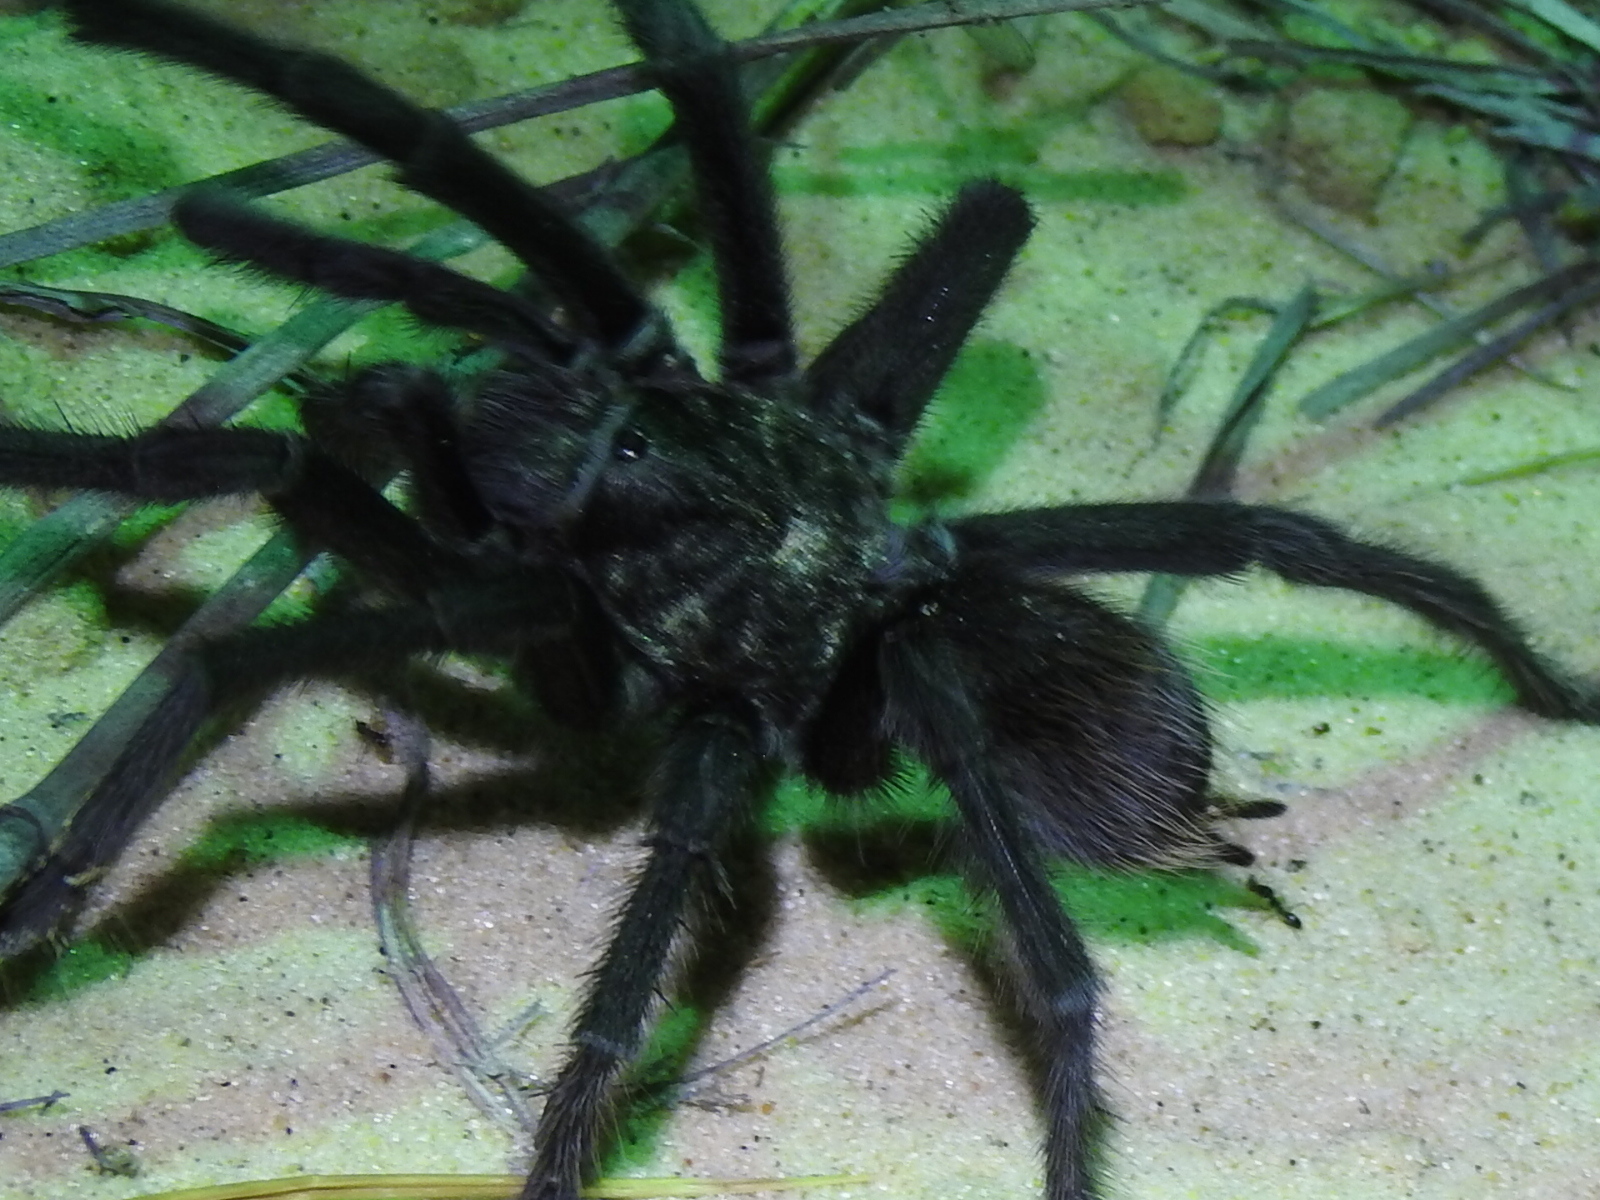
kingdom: Animalia
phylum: Arthropoda
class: Arachnida
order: Araneae
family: Theraphosidae
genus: Aphonopelma
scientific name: Aphonopelma gabeli
